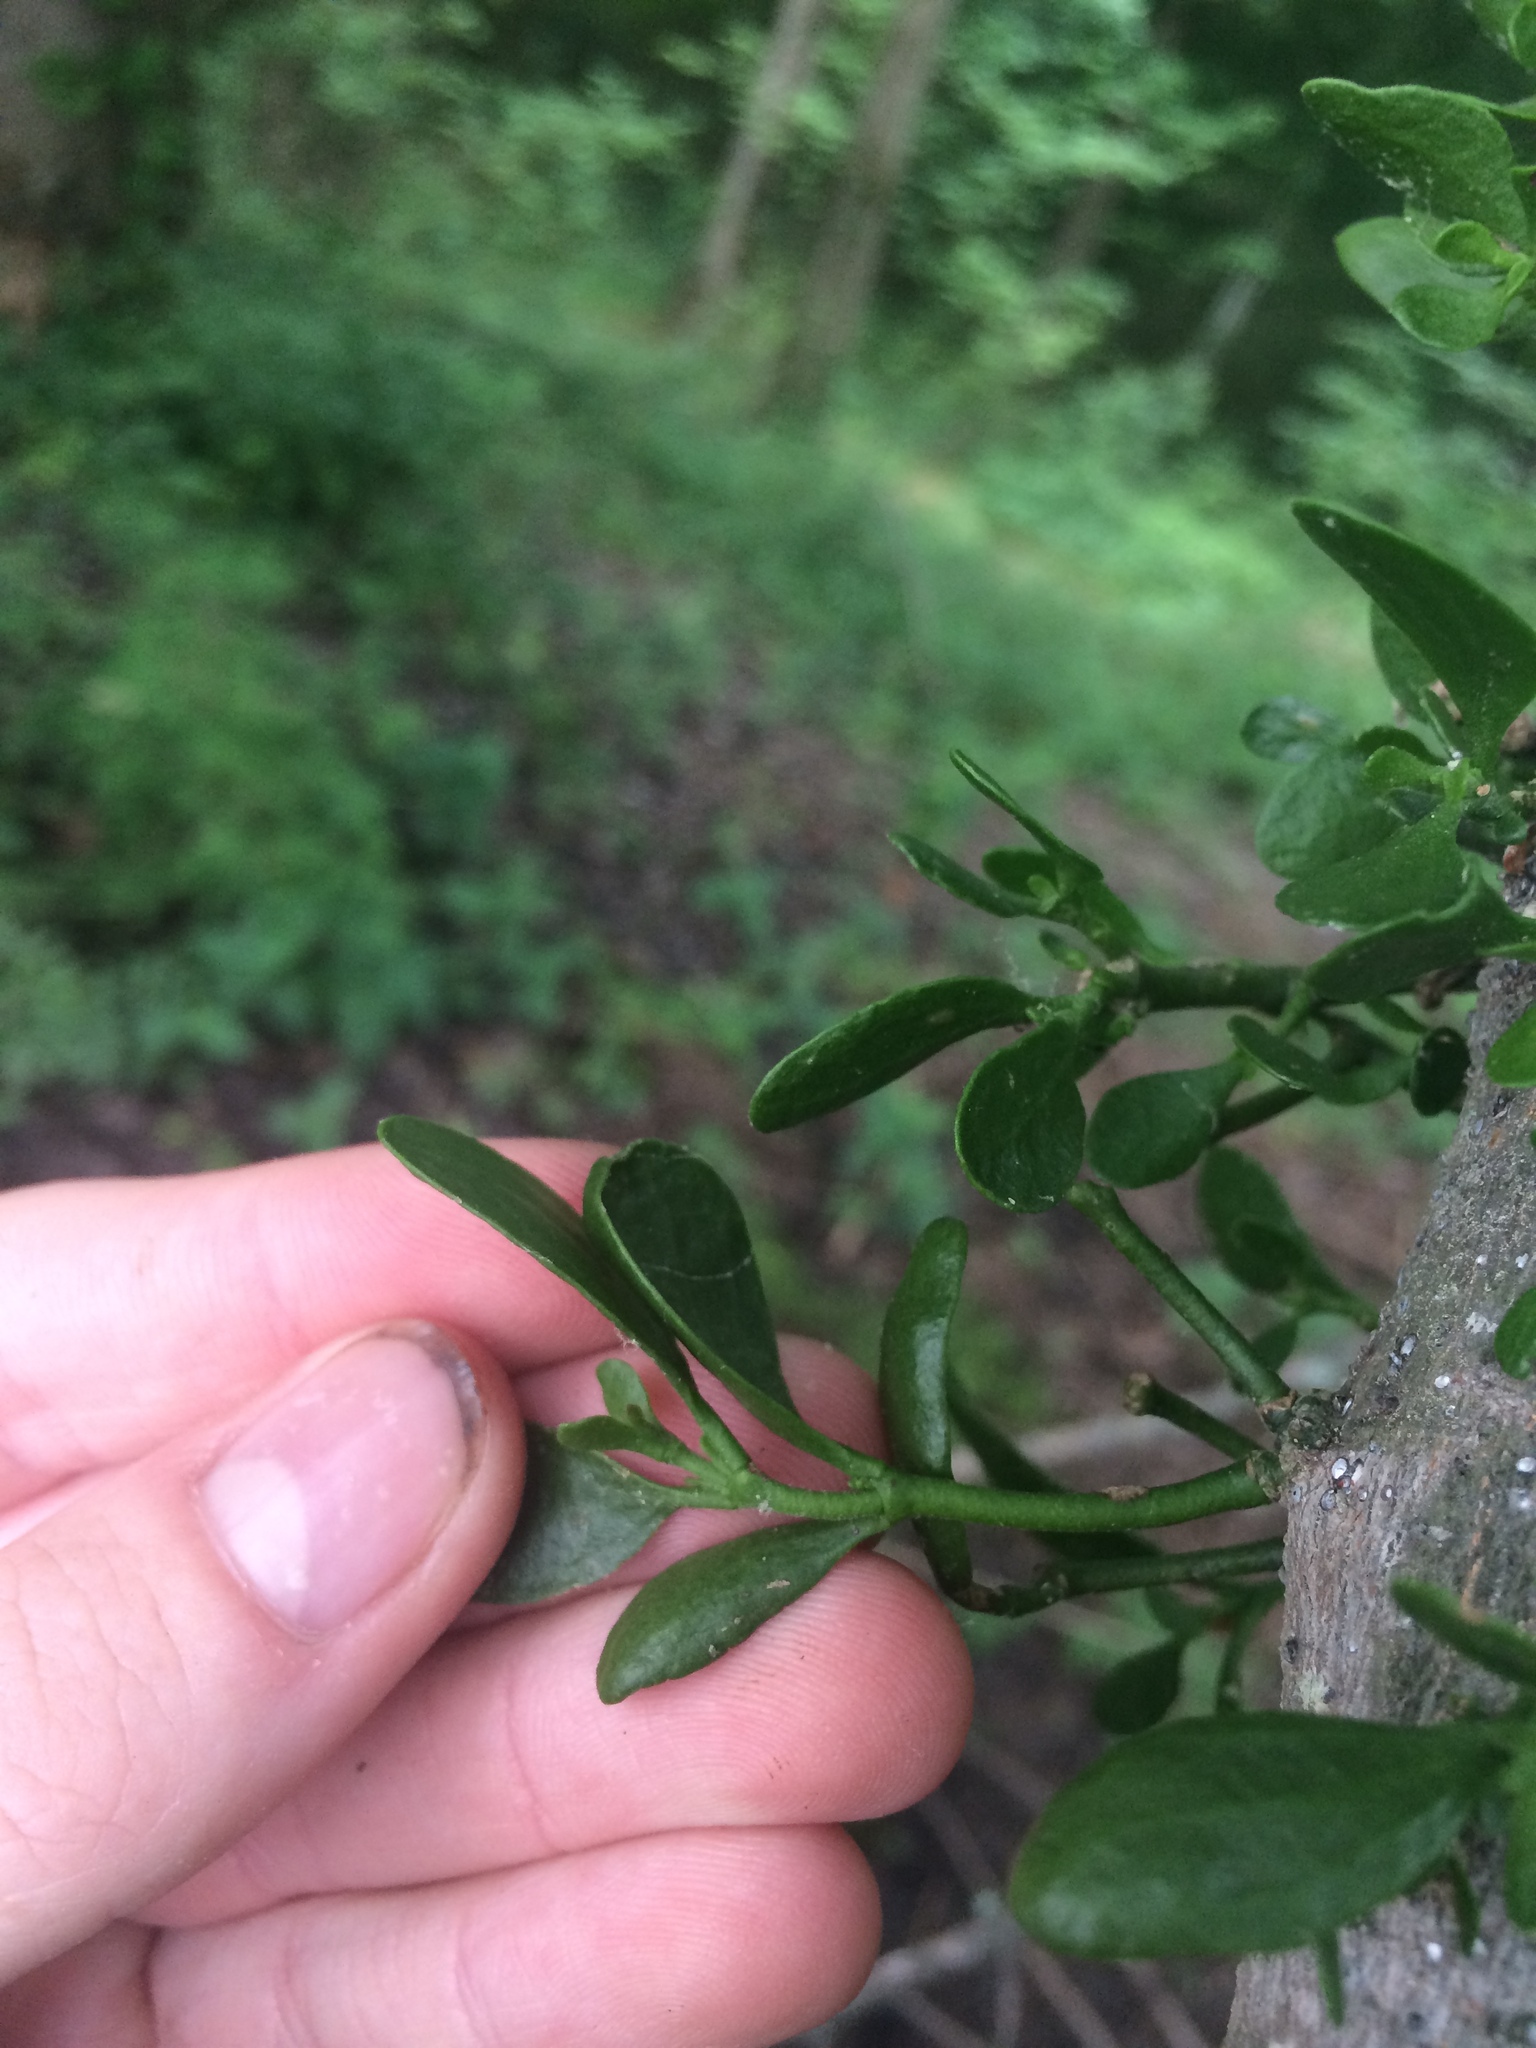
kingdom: Plantae
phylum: Tracheophyta
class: Magnoliopsida
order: Santalales
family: Viscaceae
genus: Phoradendron
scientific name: Phoradendron leucarpum
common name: Pacific mistletoe
